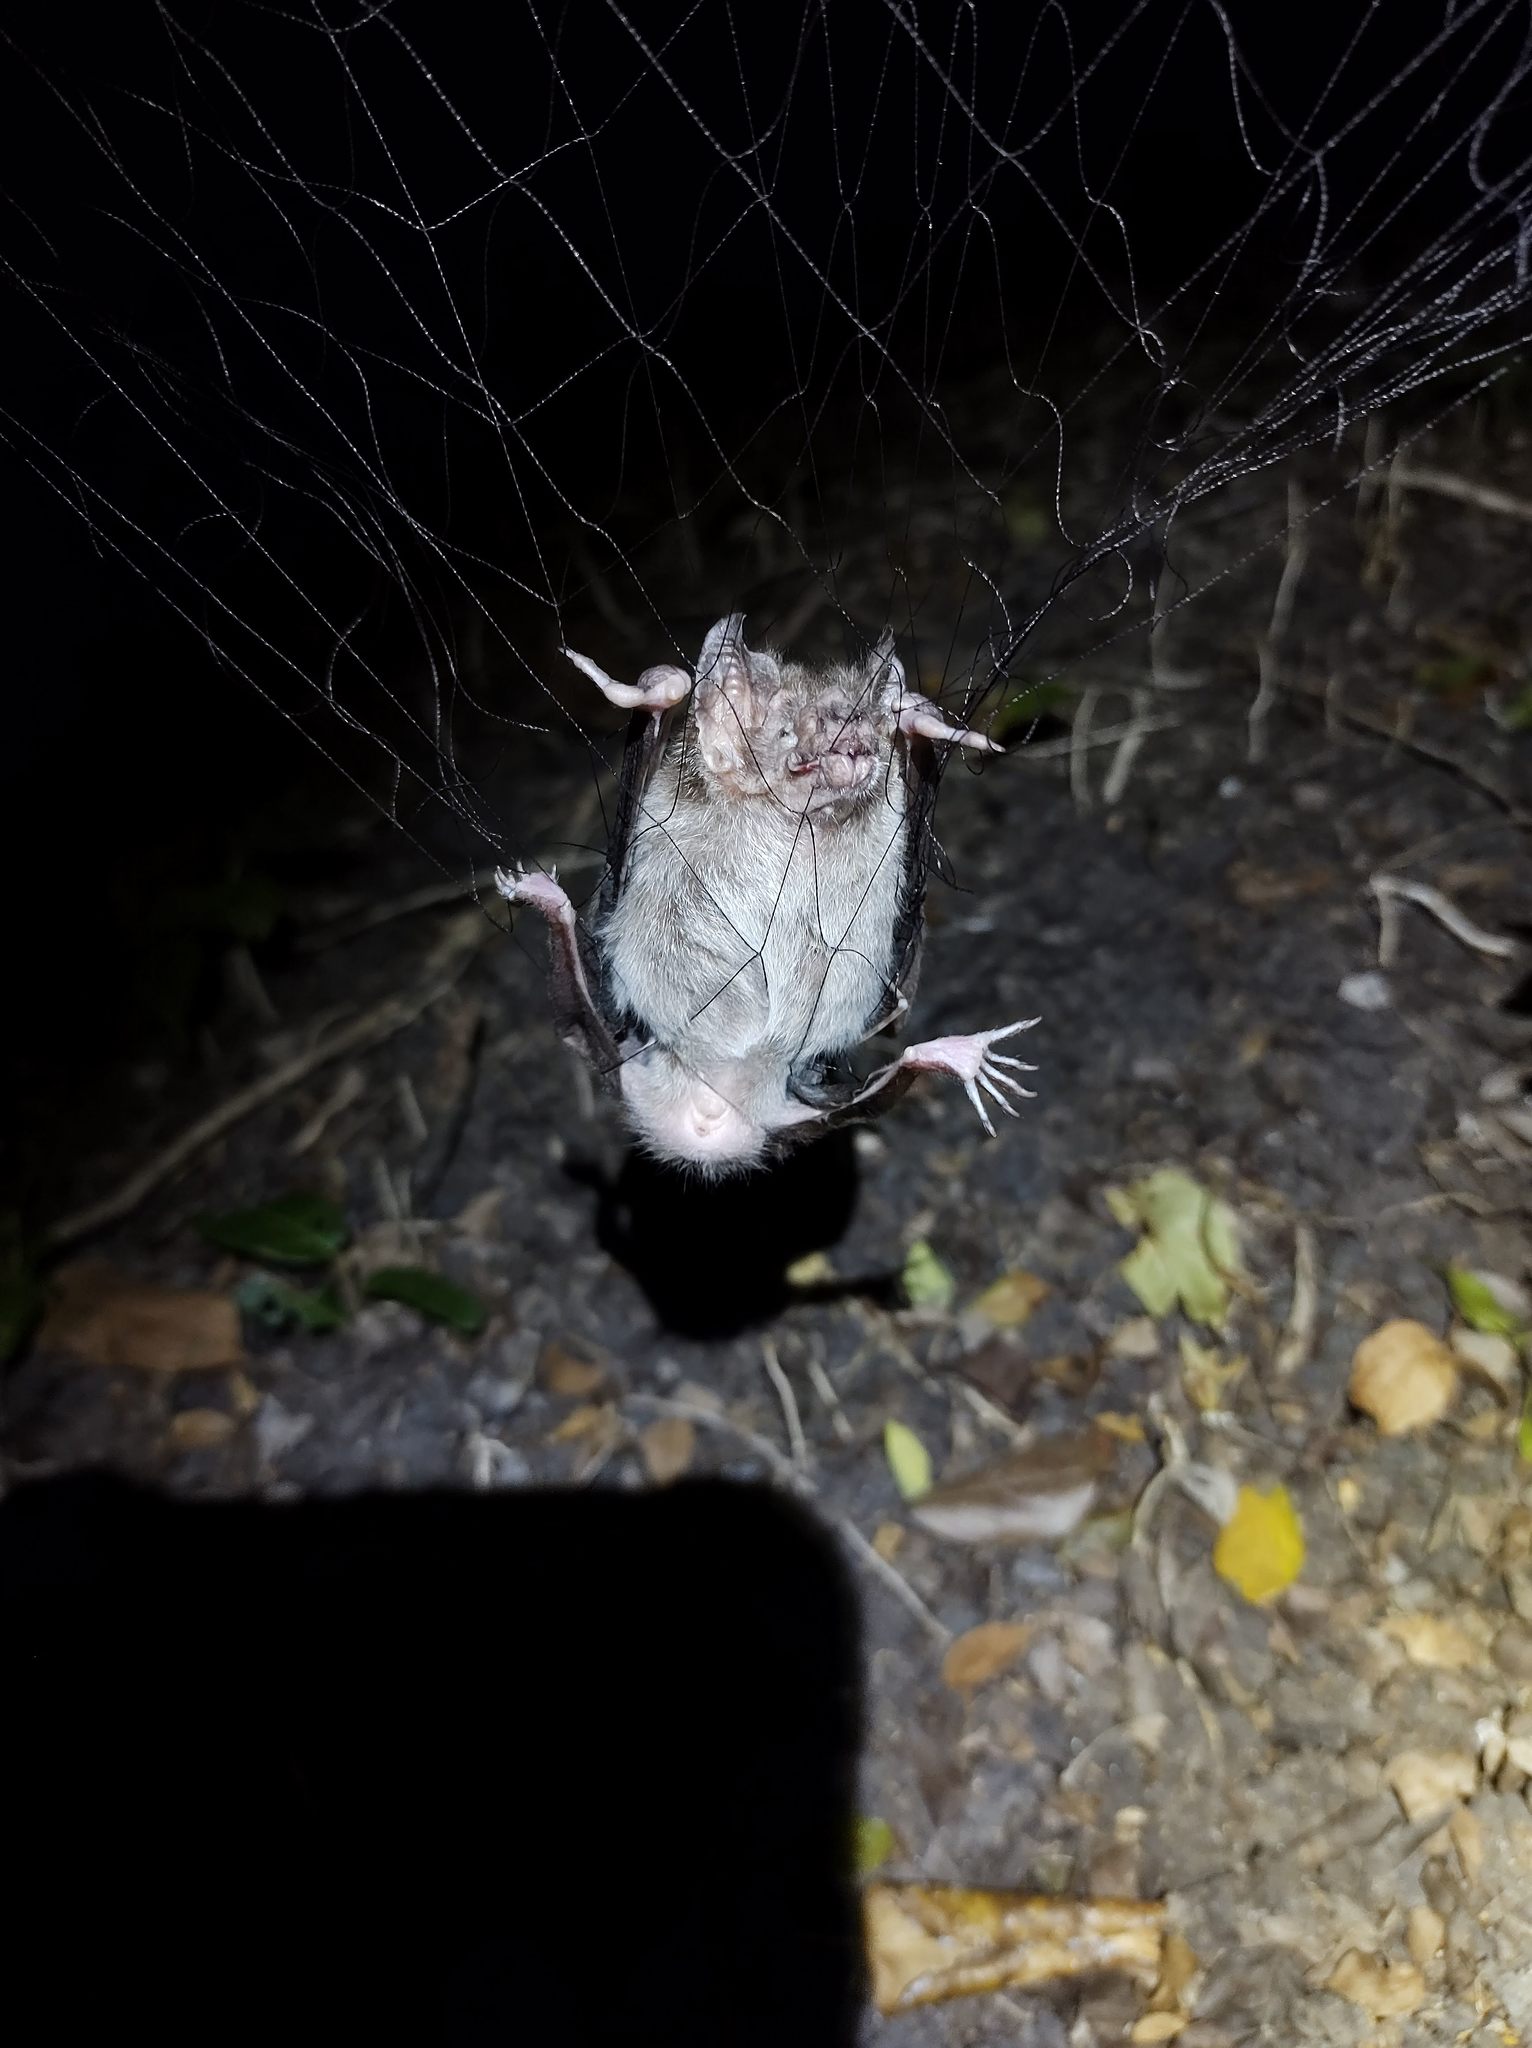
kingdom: Animalia
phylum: Chordata
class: Mammalia
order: Chiroptera
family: Phyllostomidae
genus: Desmodus
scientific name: Desmodus rotundus
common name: Common vampire bat
